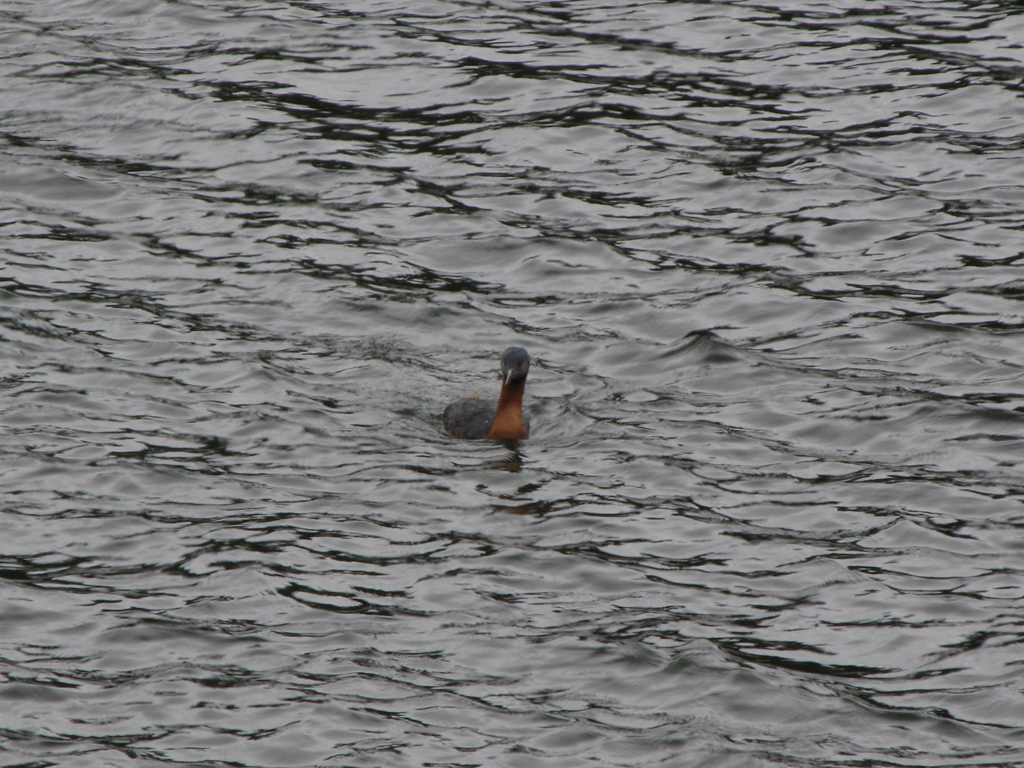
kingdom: Animalia
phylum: Chordata
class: Aves
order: Podicipediformes
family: Podicipedidae
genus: Podiceps
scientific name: Podiceps major
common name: Great grebe
